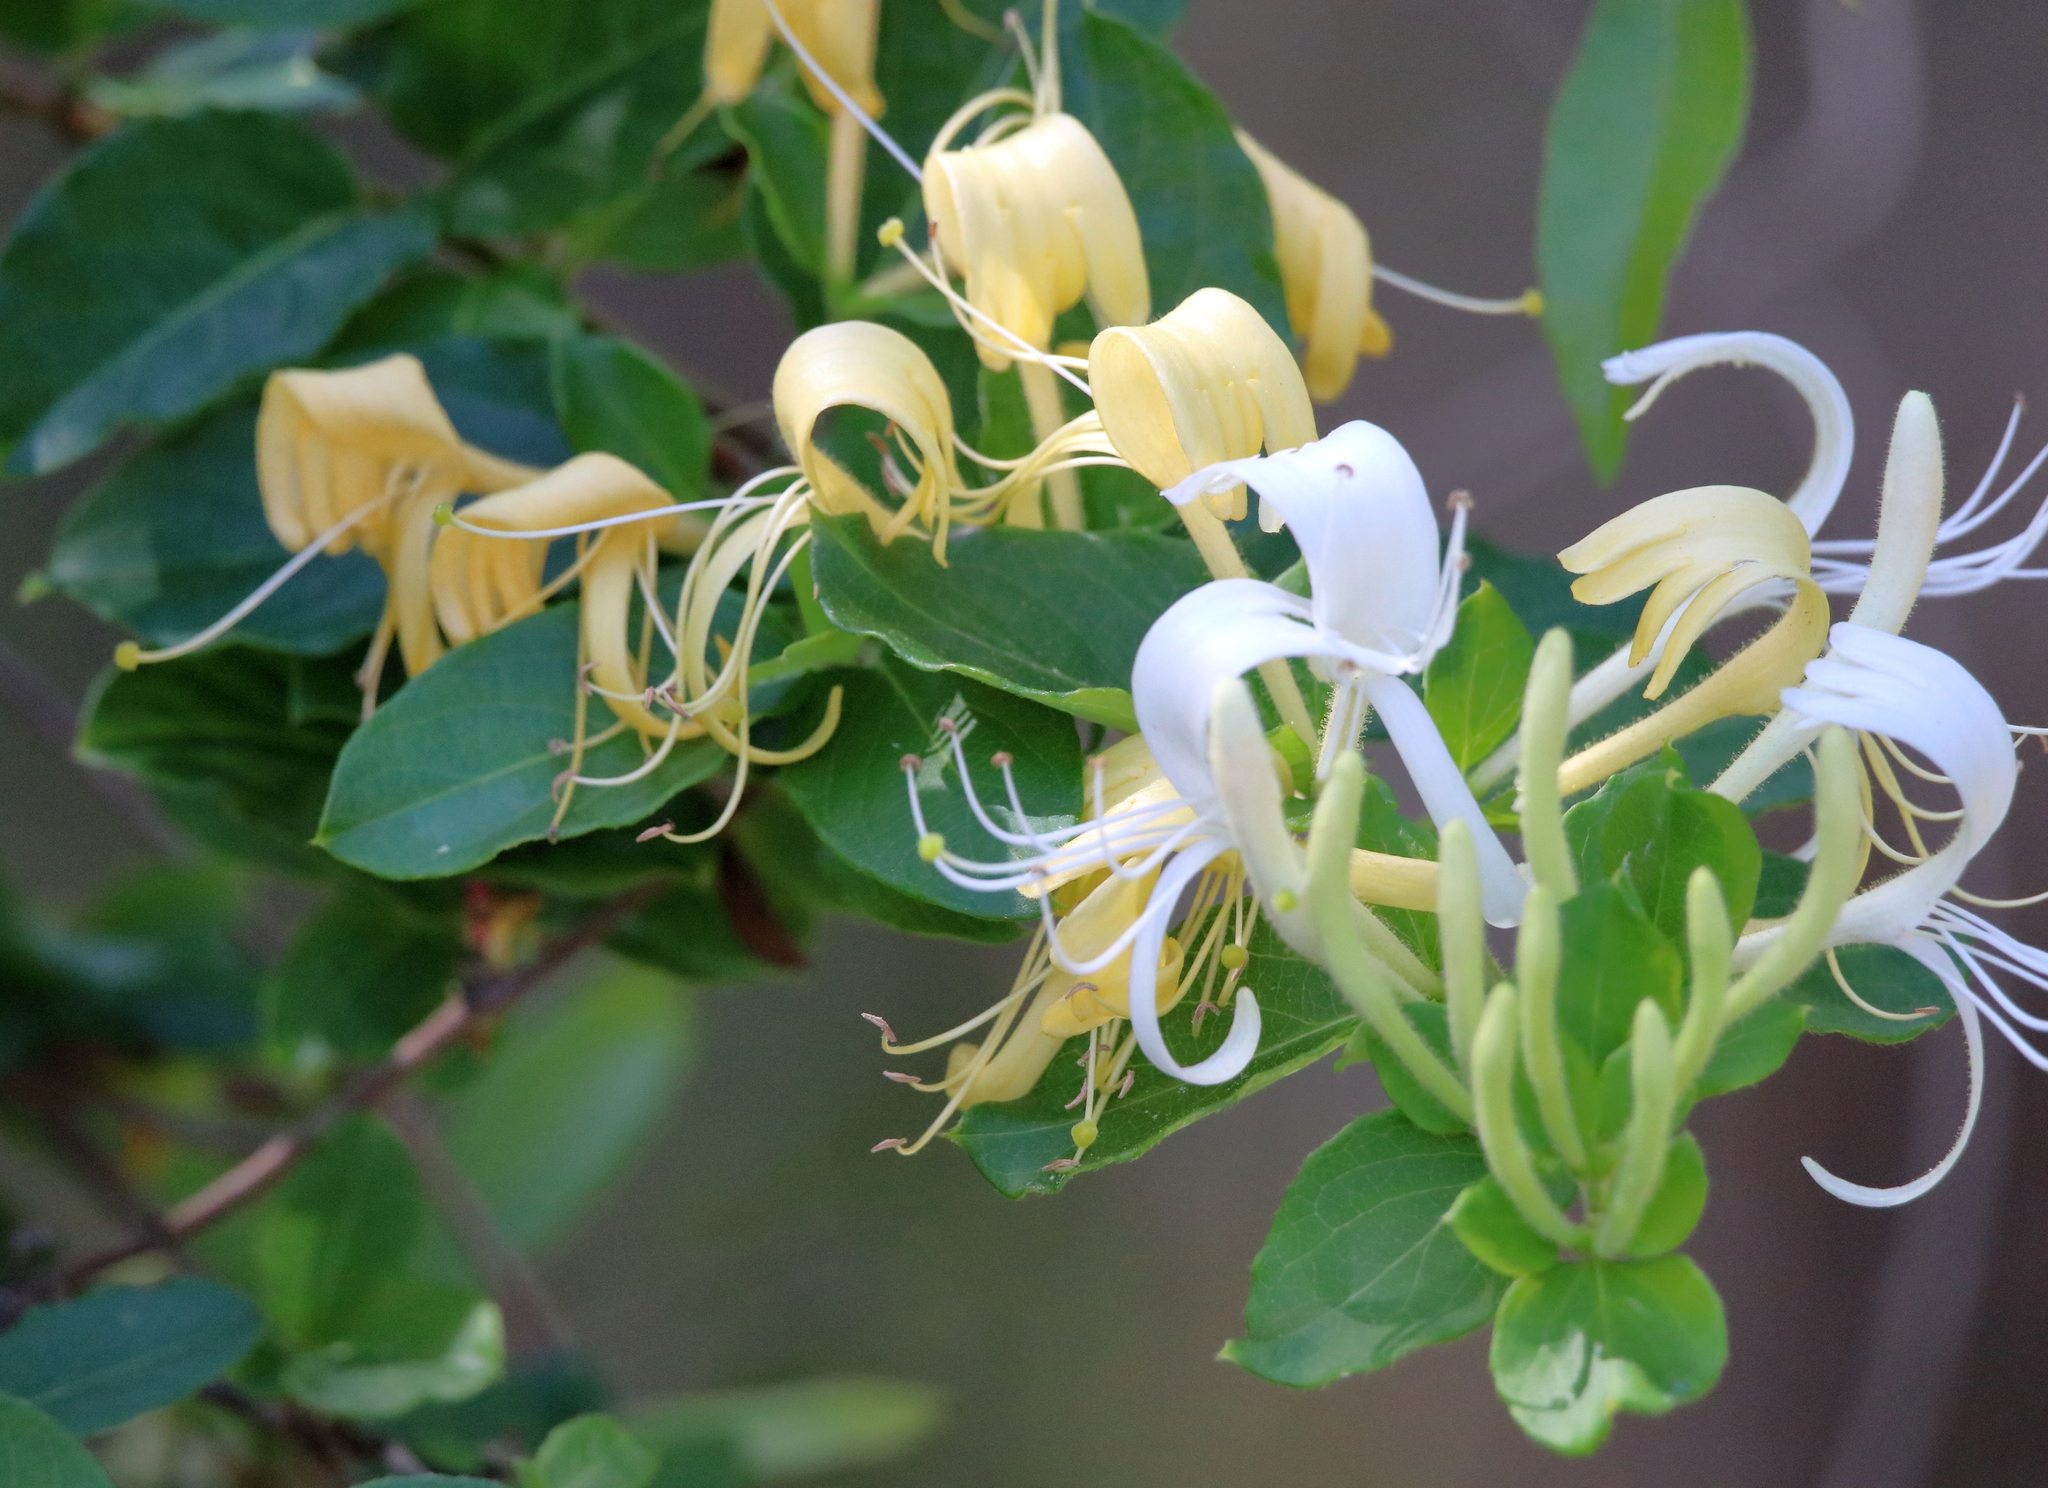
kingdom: Plantae
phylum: Tracheophyta
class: Magnoliopsida
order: Dipsacales
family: Caprifoliaceae
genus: Lonicera
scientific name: Lonicera japonica
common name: Japanese honeysuckle
